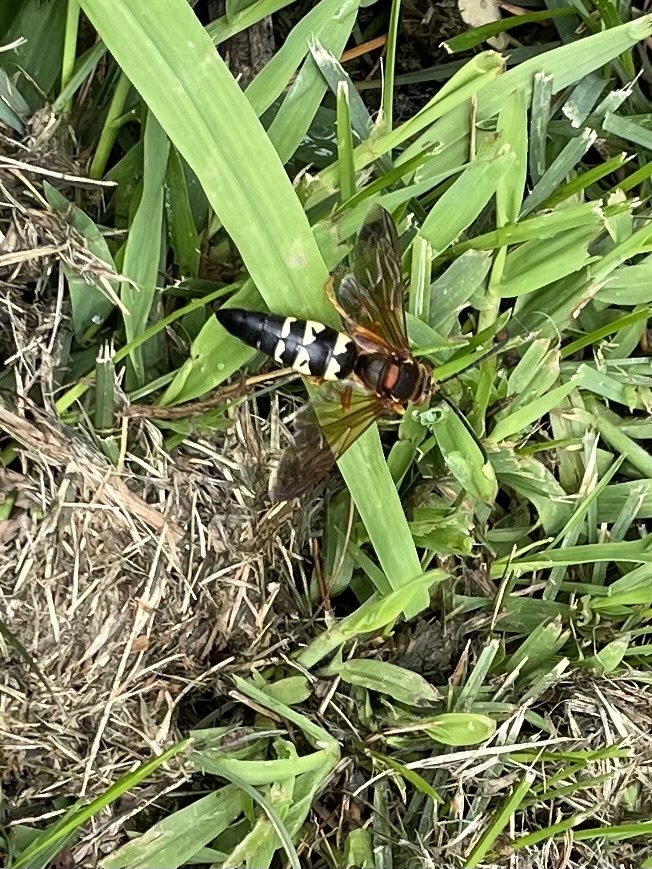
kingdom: Animalia
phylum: Arthropoda
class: Insecta
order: Hymenoptera
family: Crabronidae
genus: Sphecius
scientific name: Sphecius speciosus
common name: Cicada killer
